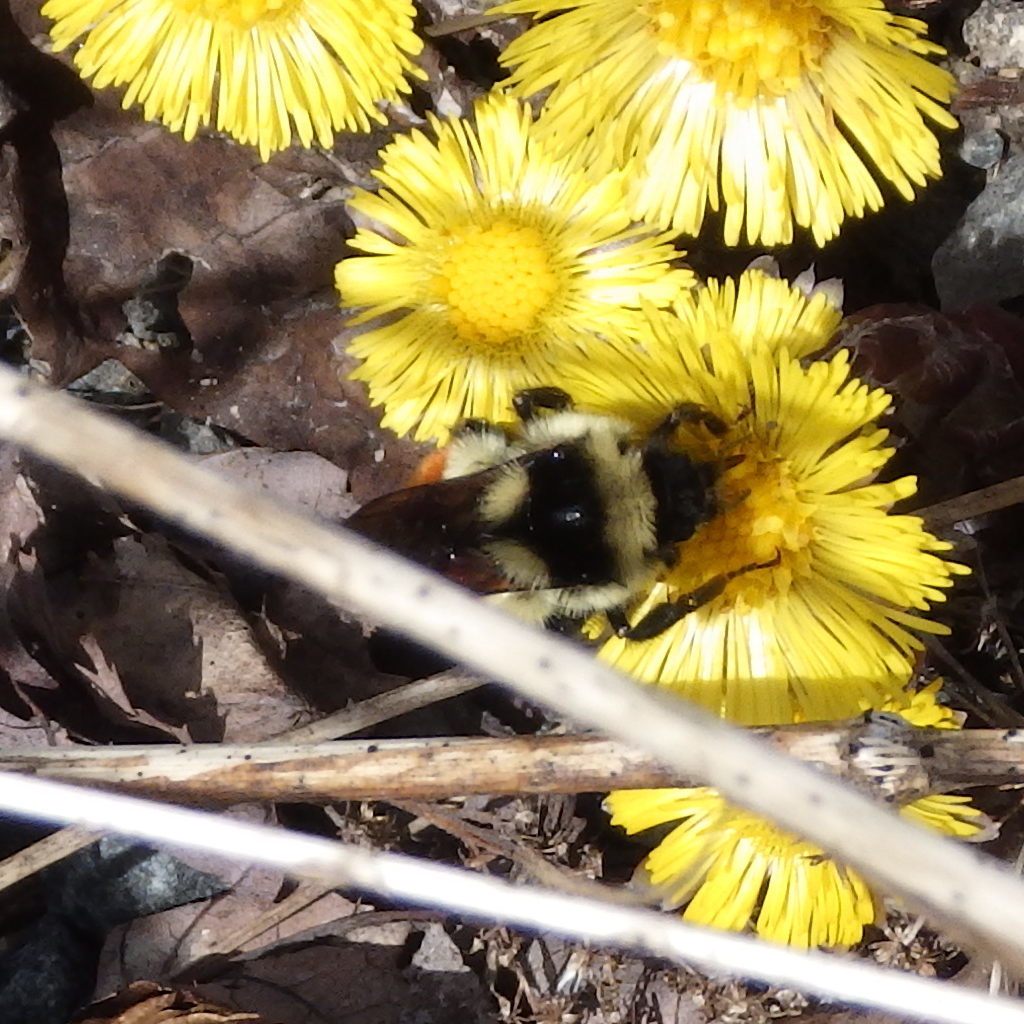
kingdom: Animalia
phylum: Arthropoda
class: Insecta
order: Hymenoptera
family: Apidae
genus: Bombus
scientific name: Bombus ternarius
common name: Tri-colored bumble bee
